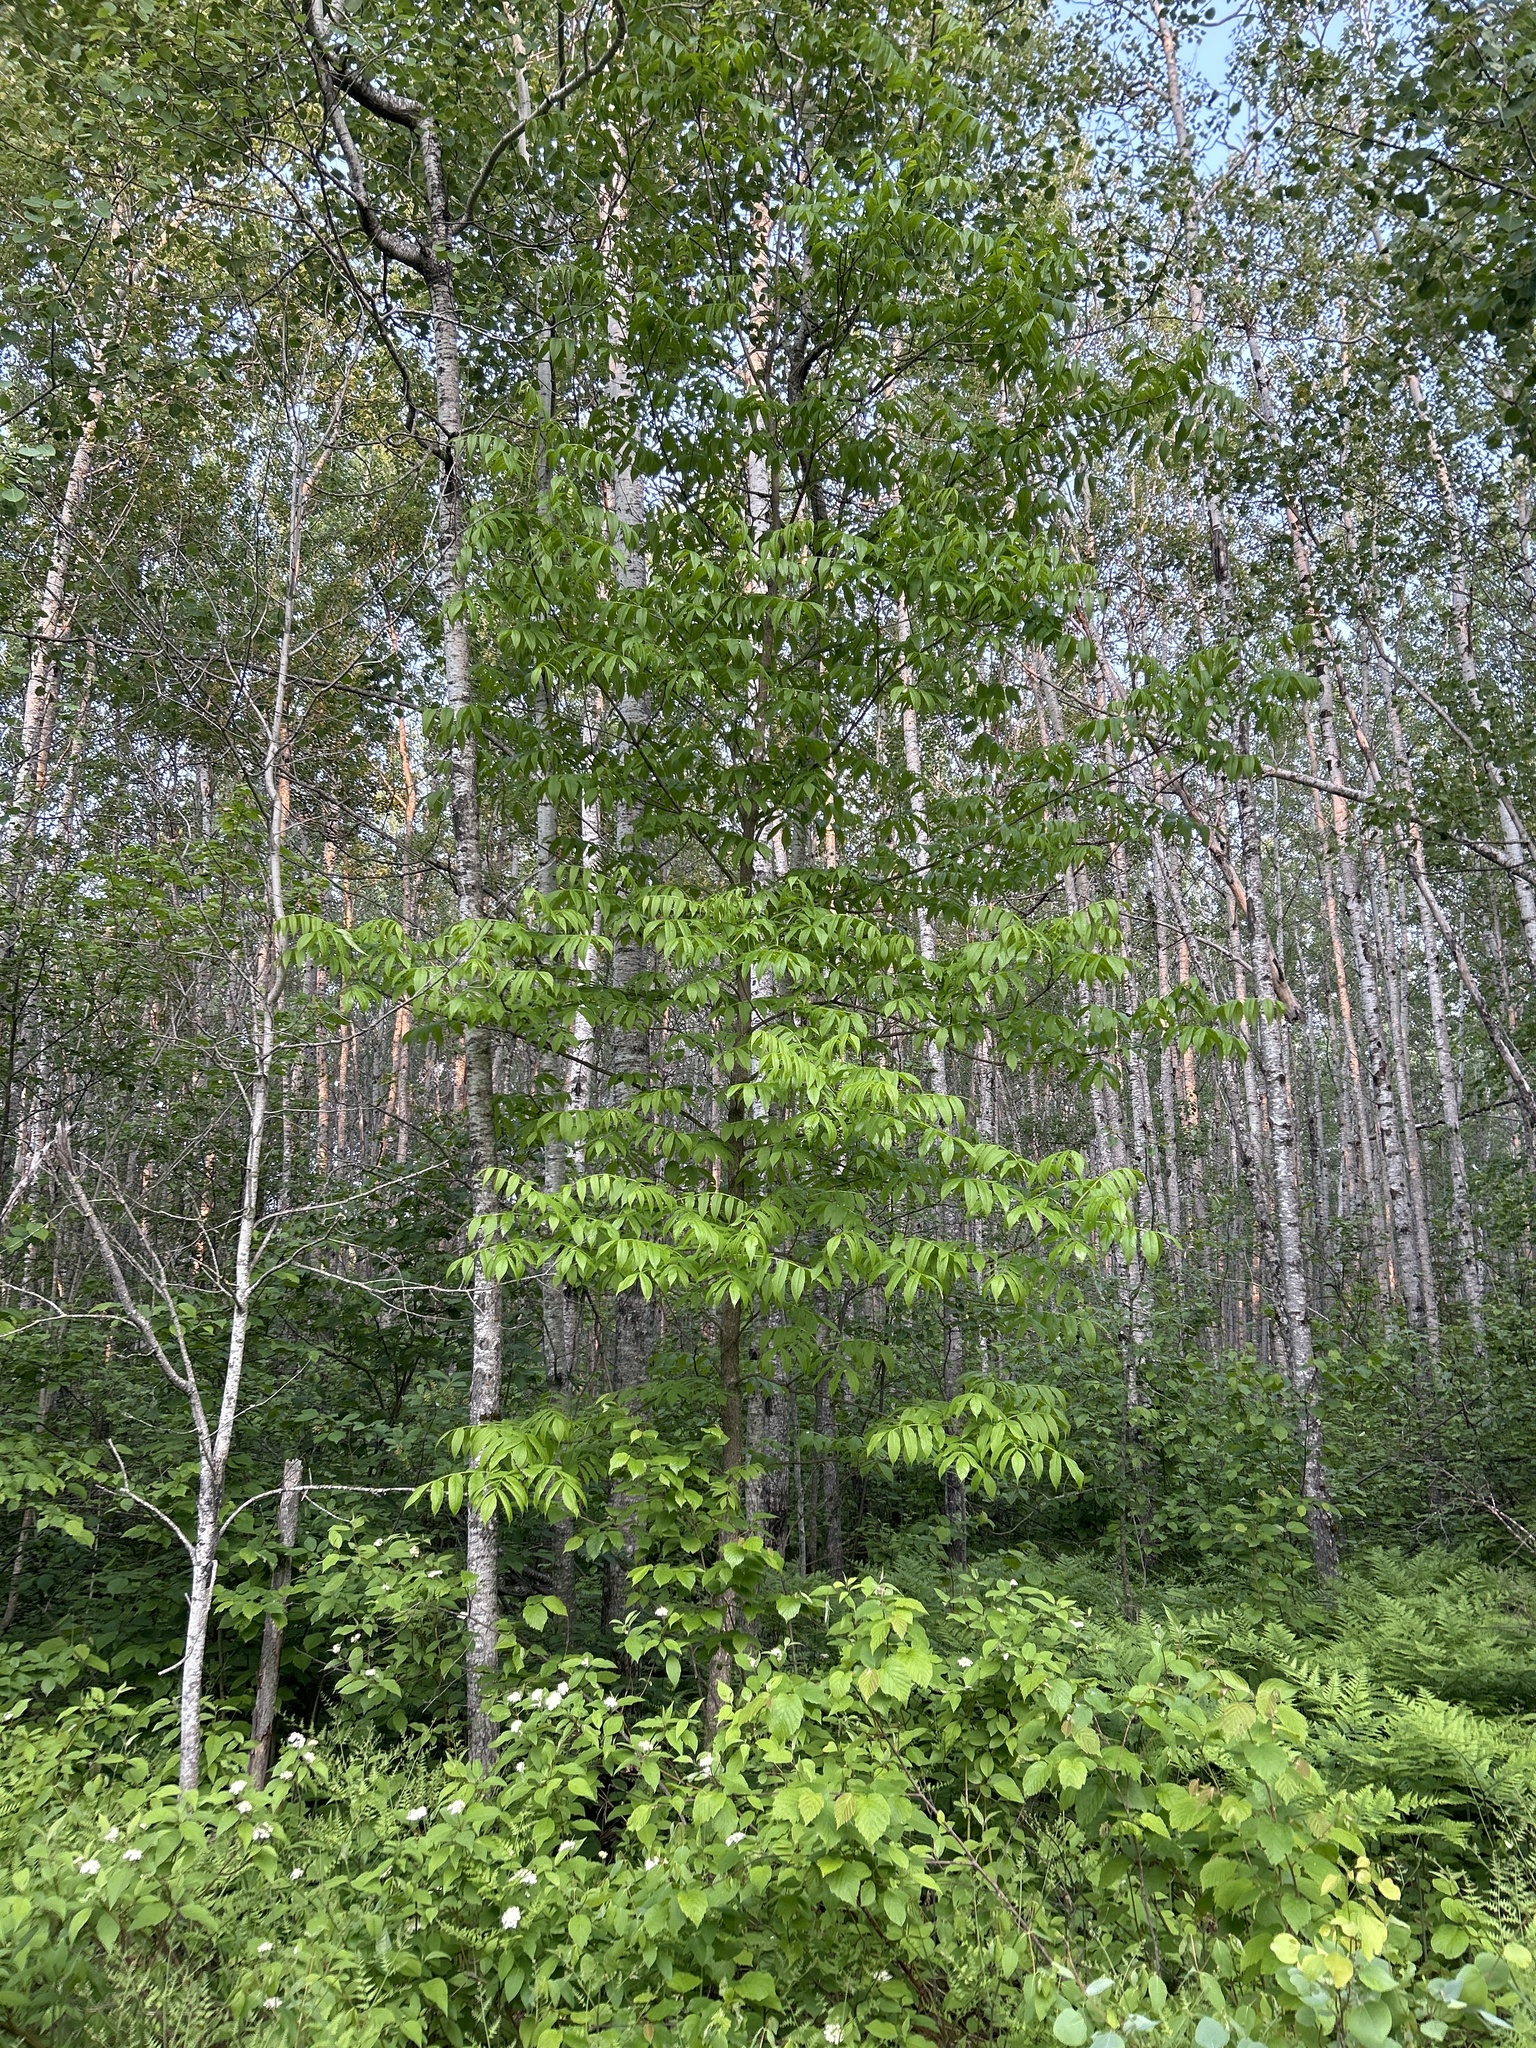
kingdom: Plantae
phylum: Tracheophyta
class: Magnoliopsida
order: Lamiales
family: Oleaceae
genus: Fraxinus
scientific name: Fraxinus nigra
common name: Black ash
